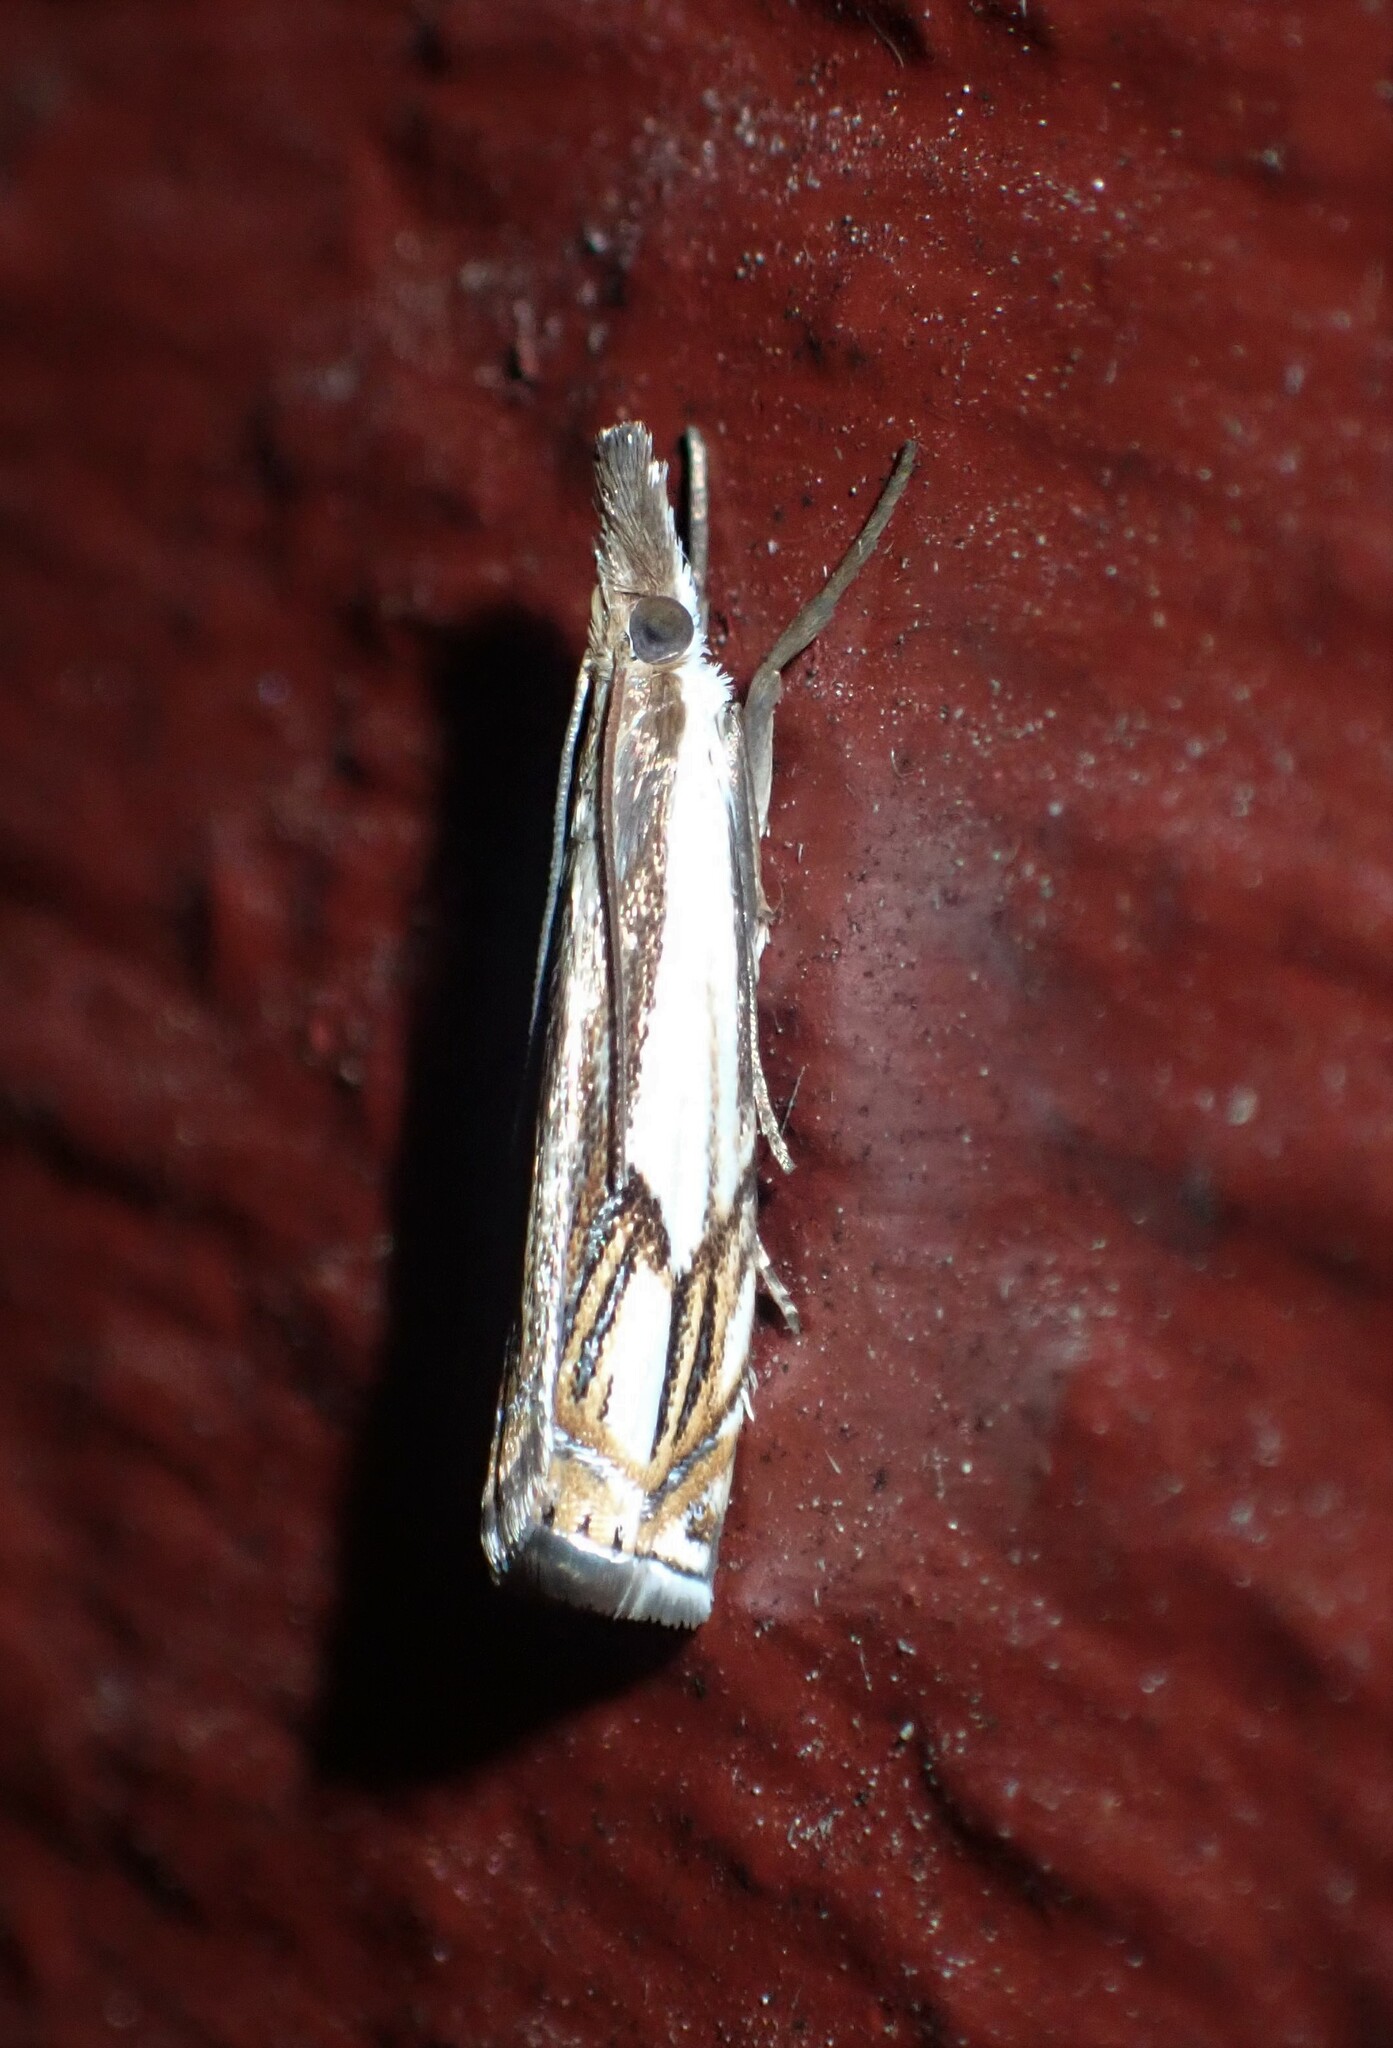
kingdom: Animalia
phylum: Arthropoda
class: Insecta
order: Lepidoptera
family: Crambidae
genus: Crambus
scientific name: Crambus agitatellus
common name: Double-banded grass-veneer
